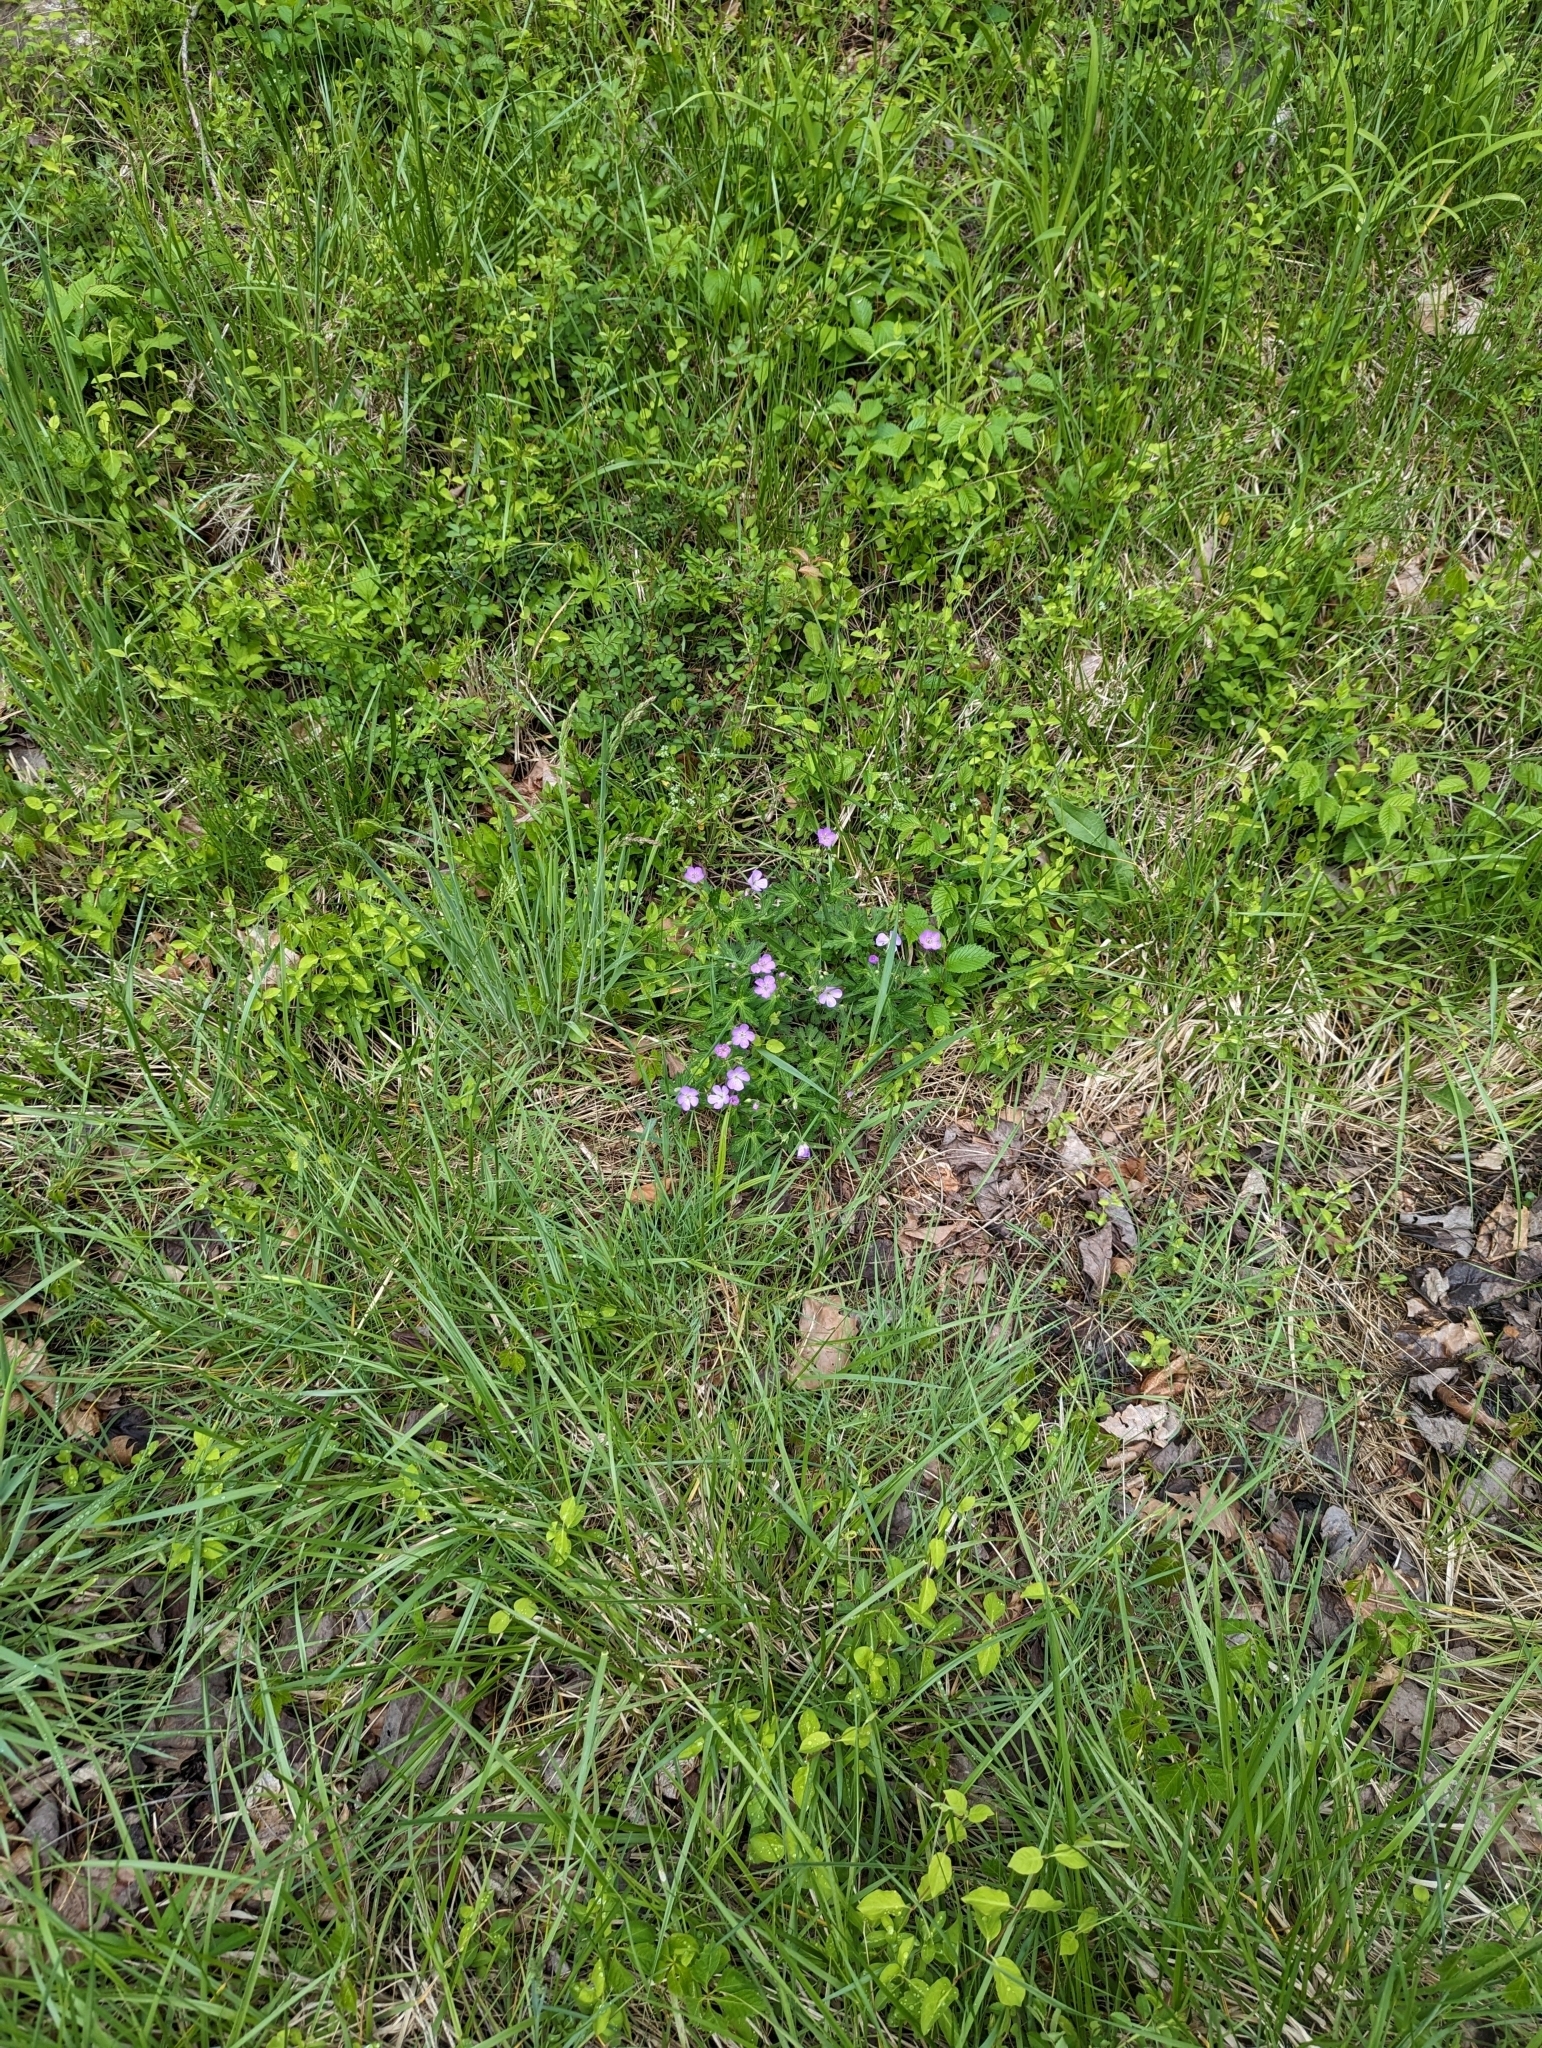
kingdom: Plantae
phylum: Tracheophyta
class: Magnoliopsida
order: Geraniales
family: Geraniaceae
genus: Geranium
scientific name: Geranium maculatum
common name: Spotted geranium
